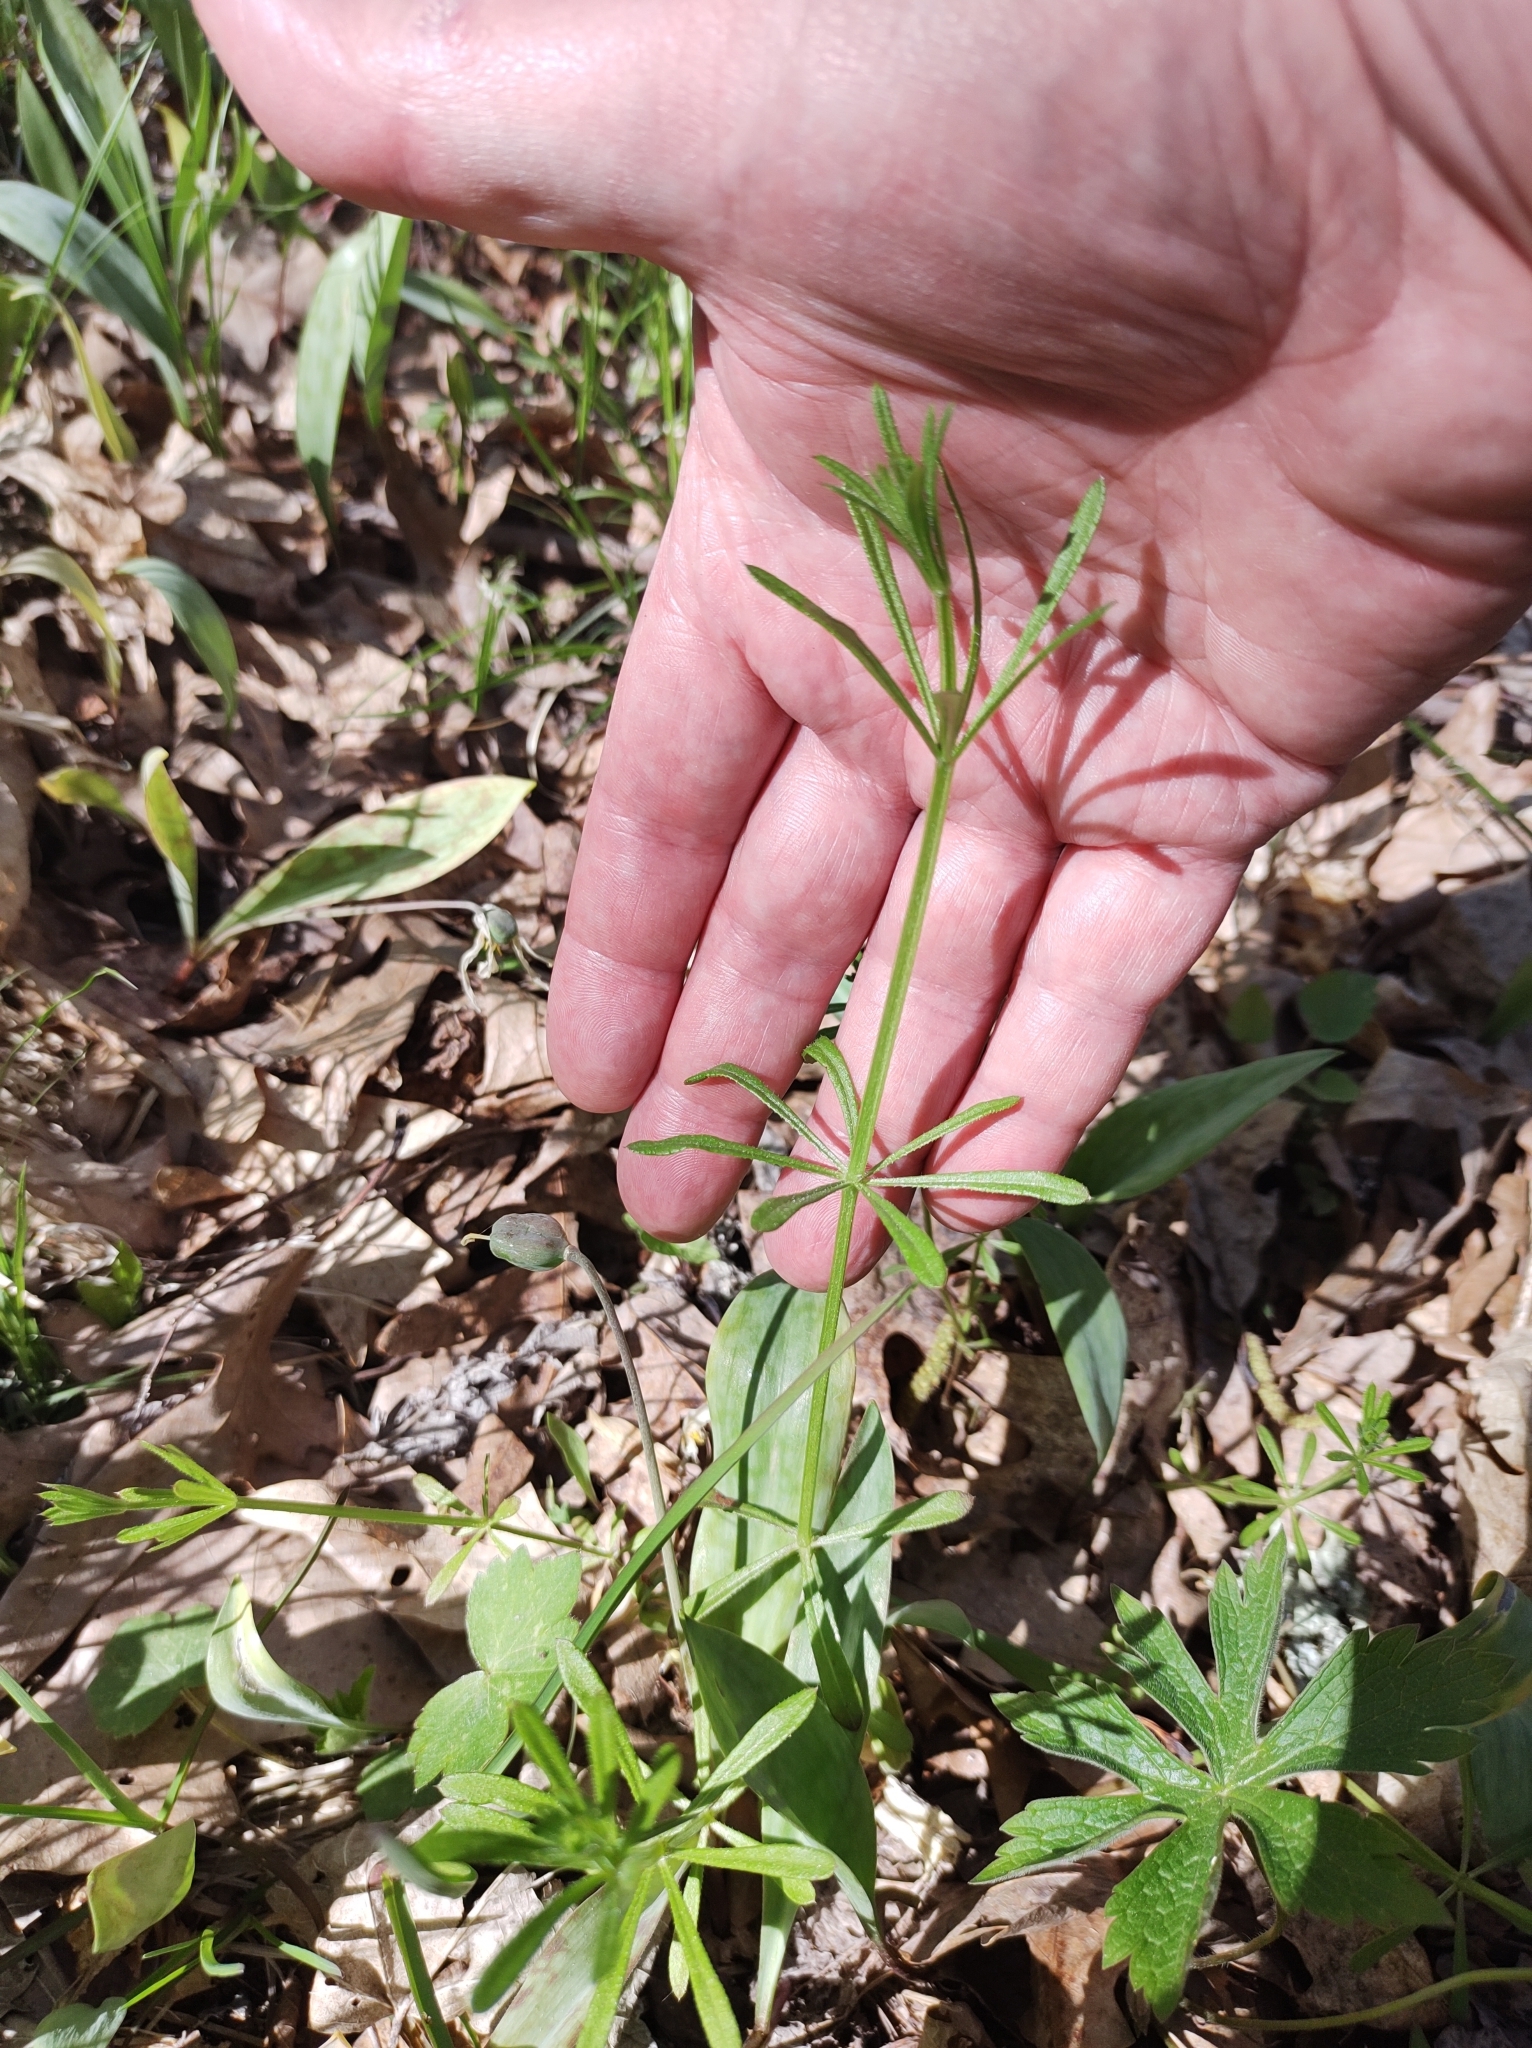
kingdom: Plantae
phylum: Tracheophyta
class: Magnoliopsida
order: Gentianales
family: Rubiaceae
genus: Galium
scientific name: Galium aparine
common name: Cleavers
